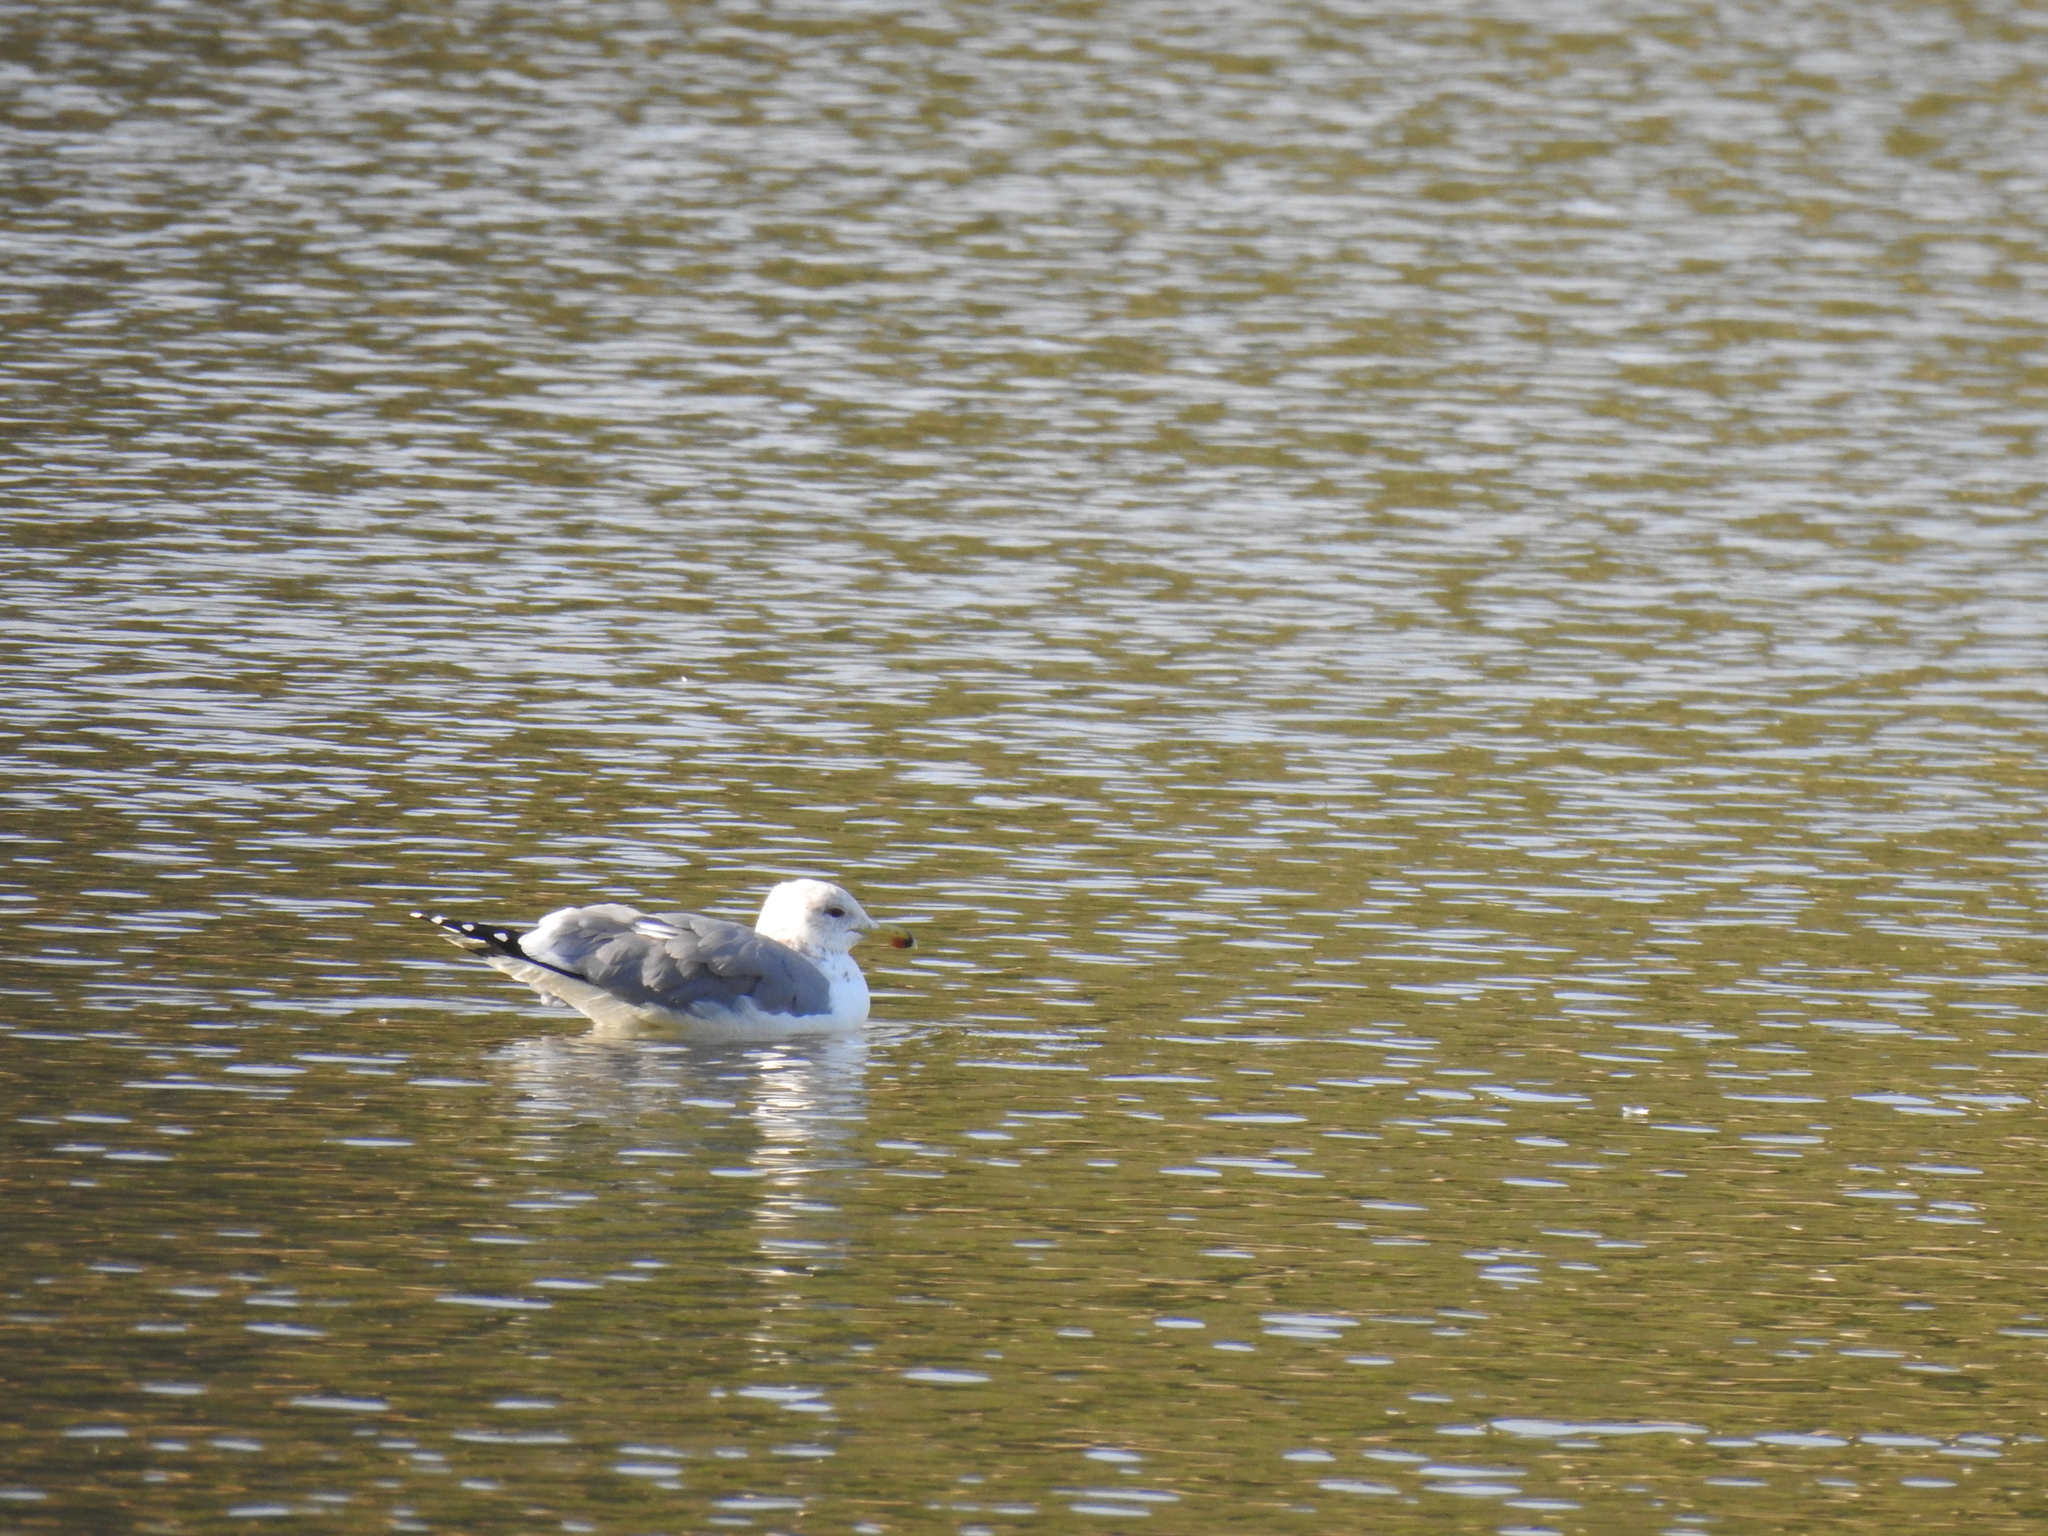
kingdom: Animalia
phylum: Chordata
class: Aves
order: Charadriiformes
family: Laridae
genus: Larus
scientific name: Larus californicus
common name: California gull
